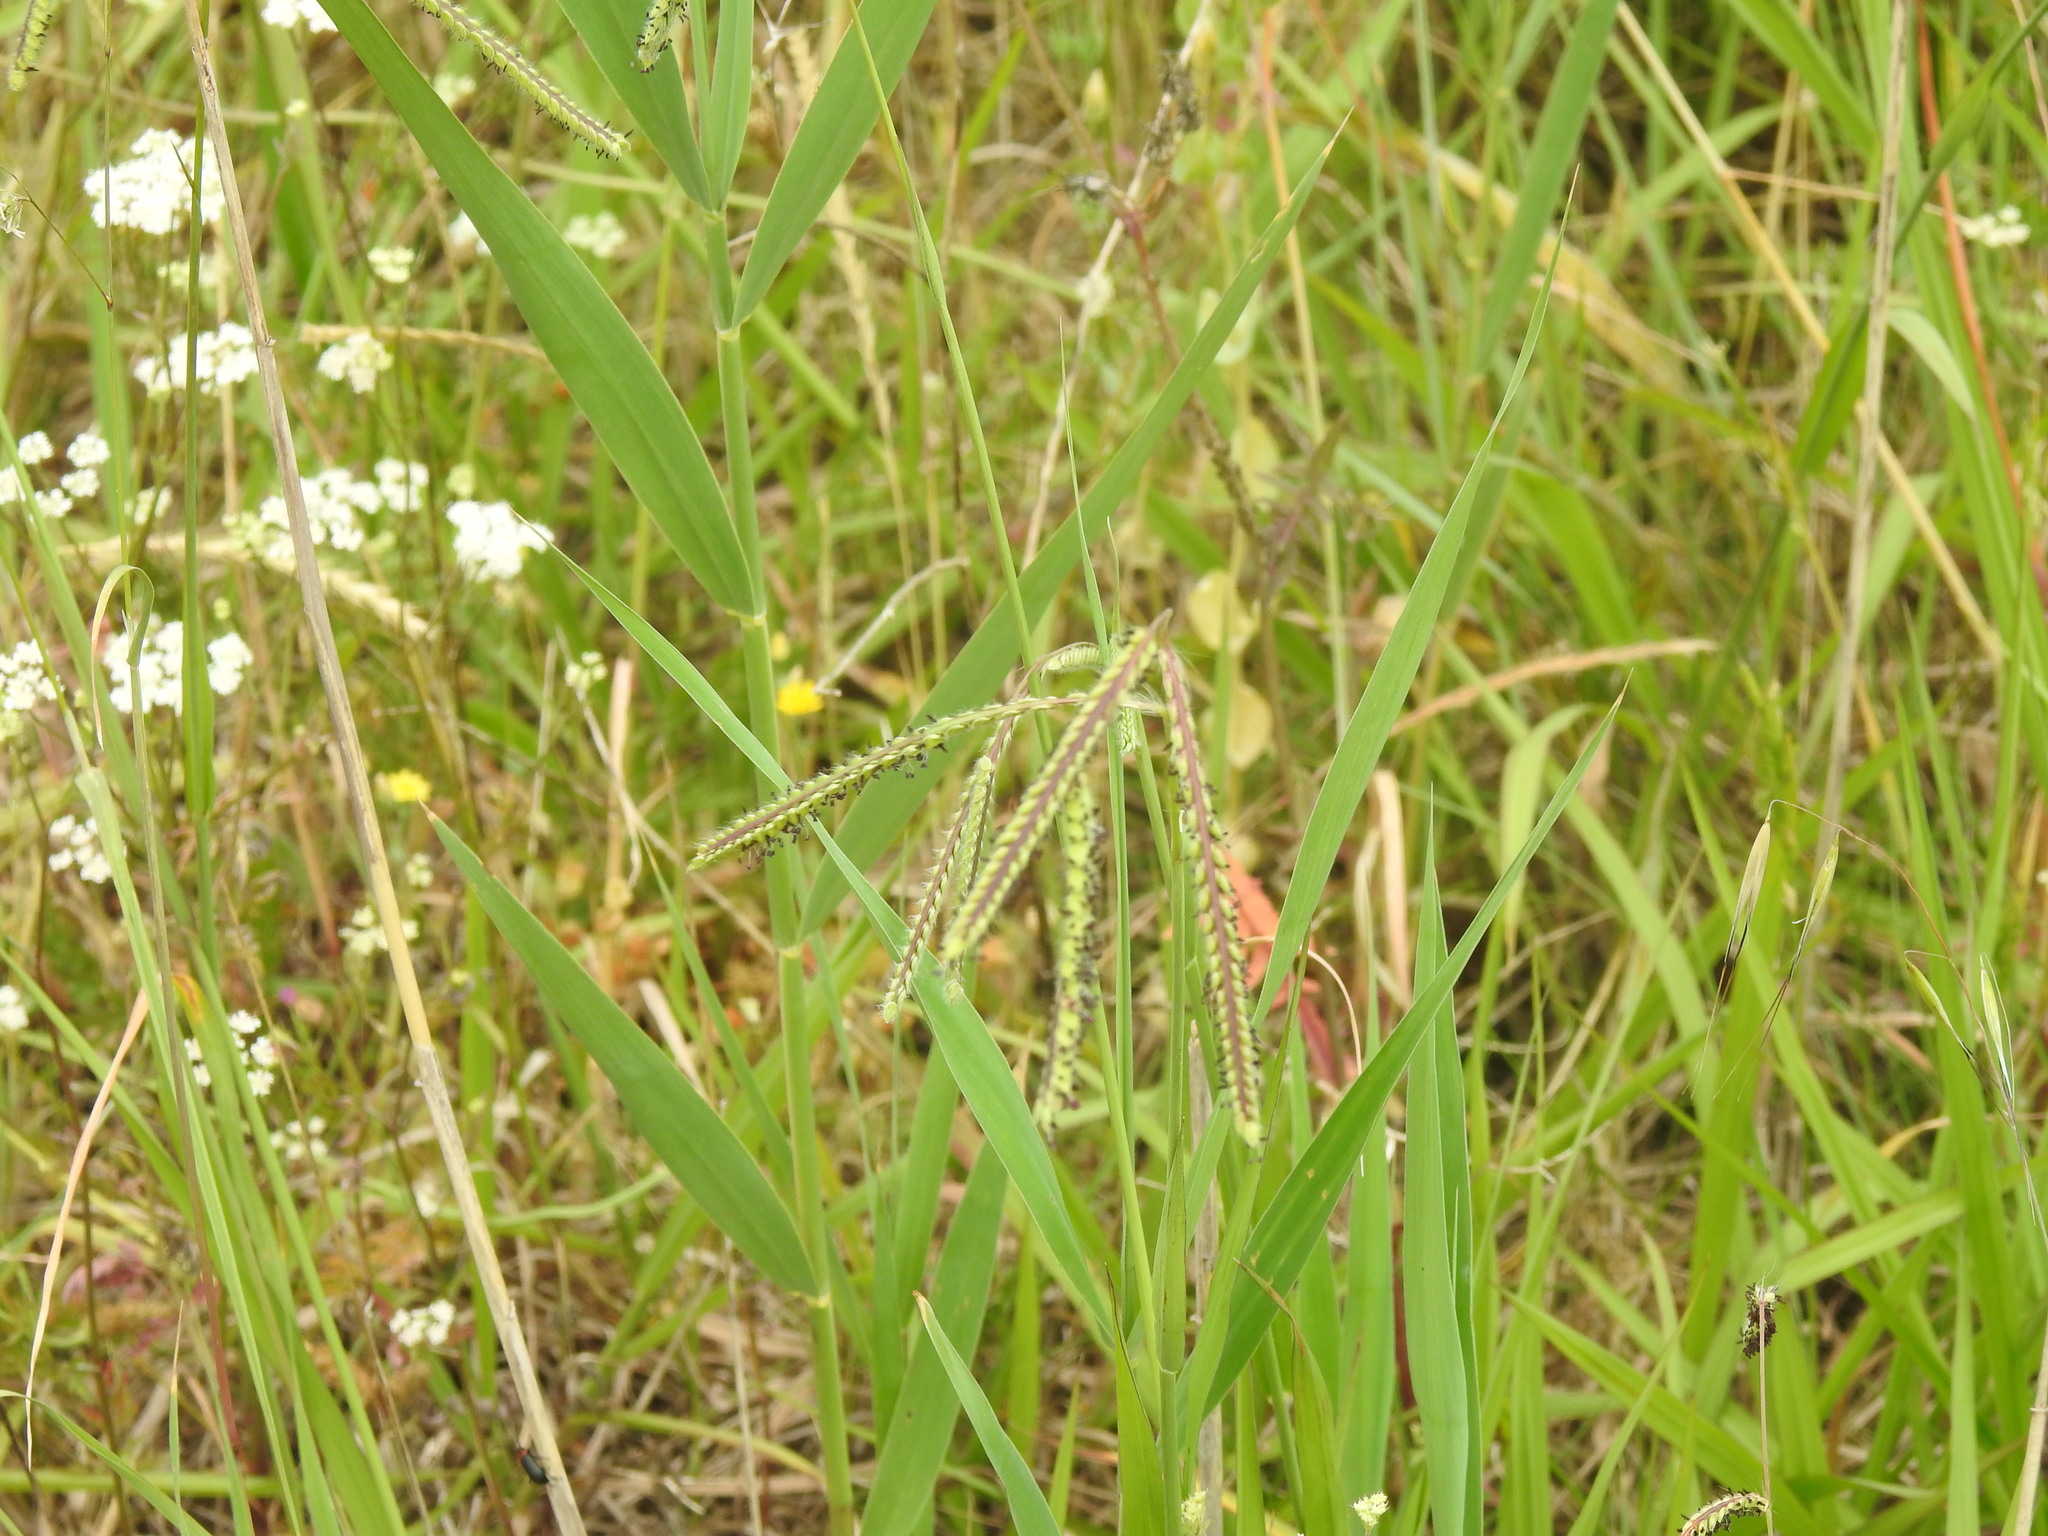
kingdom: Plantae
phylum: Tracheophyta
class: Liliopsida
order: Poales
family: Poaceae
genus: Paspalum
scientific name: Paspalum dilatatum
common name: Dallisgrass
